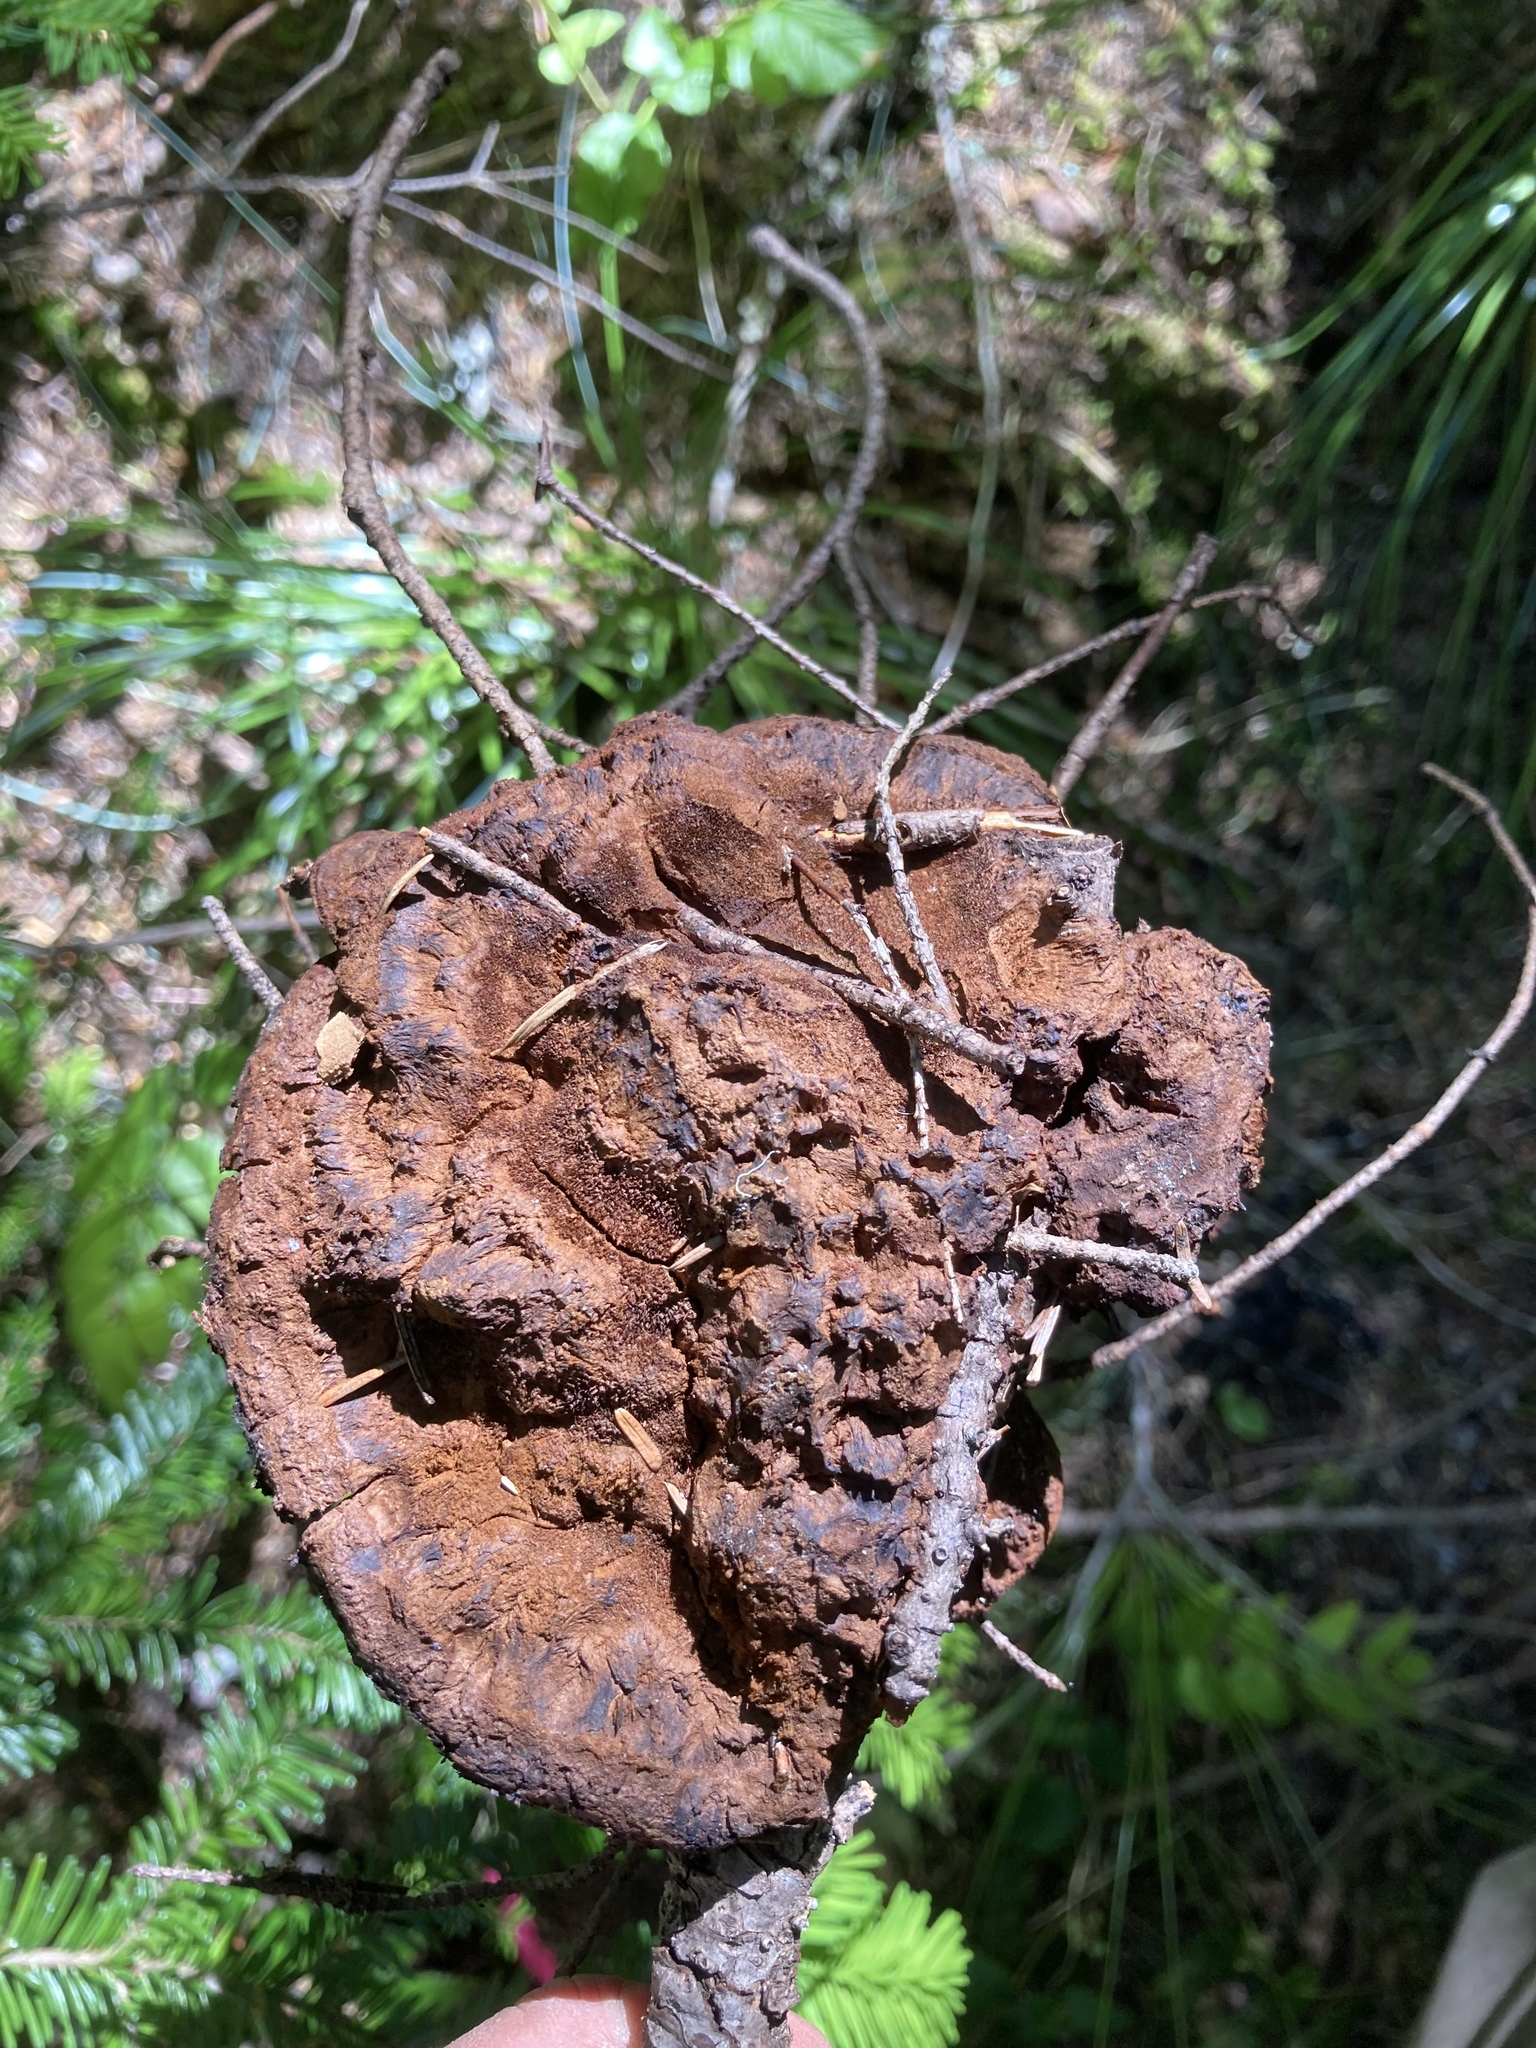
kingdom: Fungi
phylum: Basidiomycota
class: Agaricomycetes
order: Polyporales
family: Laetiporaceae
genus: Phaeolus
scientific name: Phaeolus schweinitzii
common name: Dyer's mazegill
